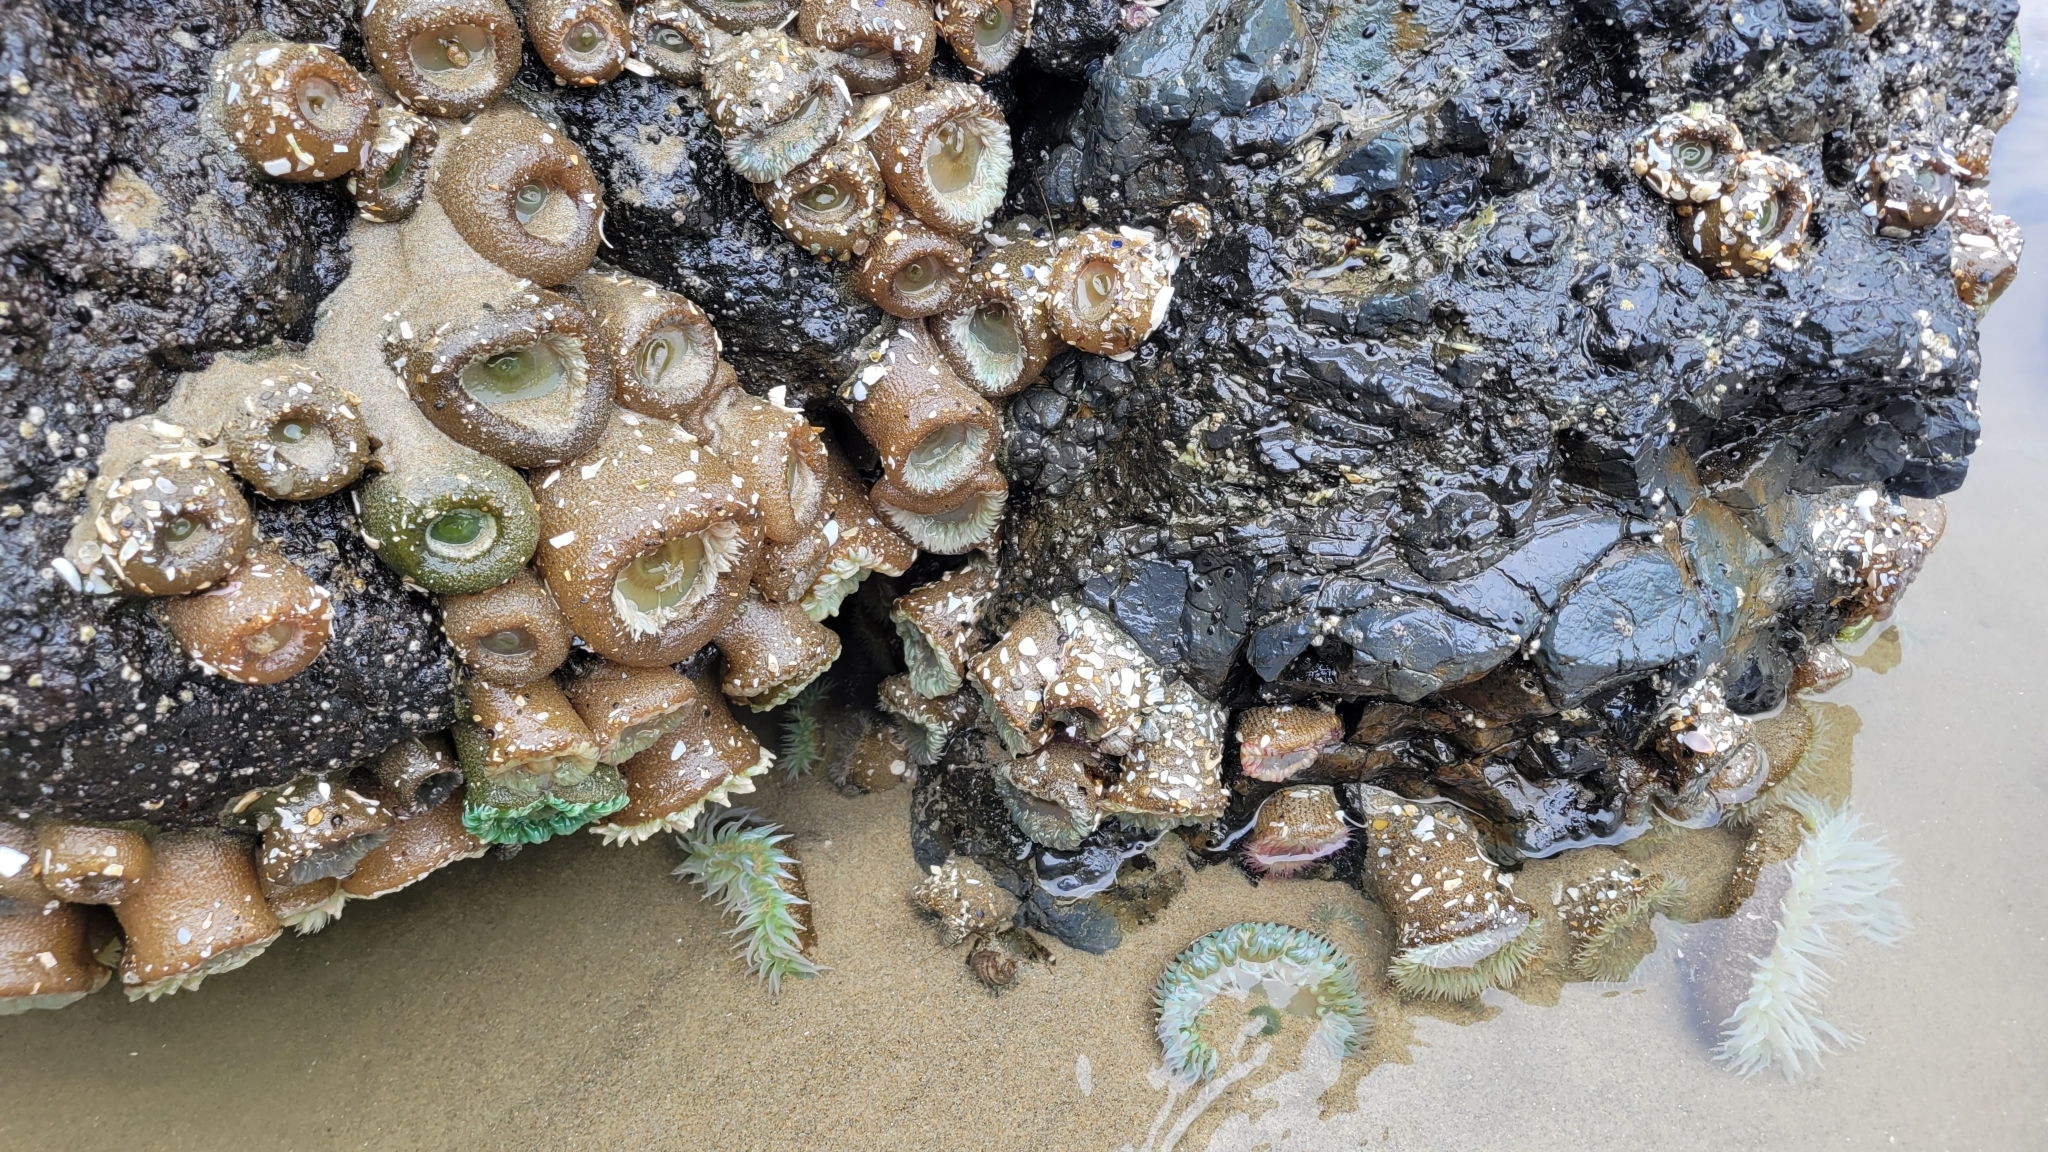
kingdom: Animalia
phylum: Cnidaria
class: Anthozoa
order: Actiniaria
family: Actiniidae
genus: Anthopleura
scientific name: Anthopleura xanthogrammica
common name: Giant green anemone
